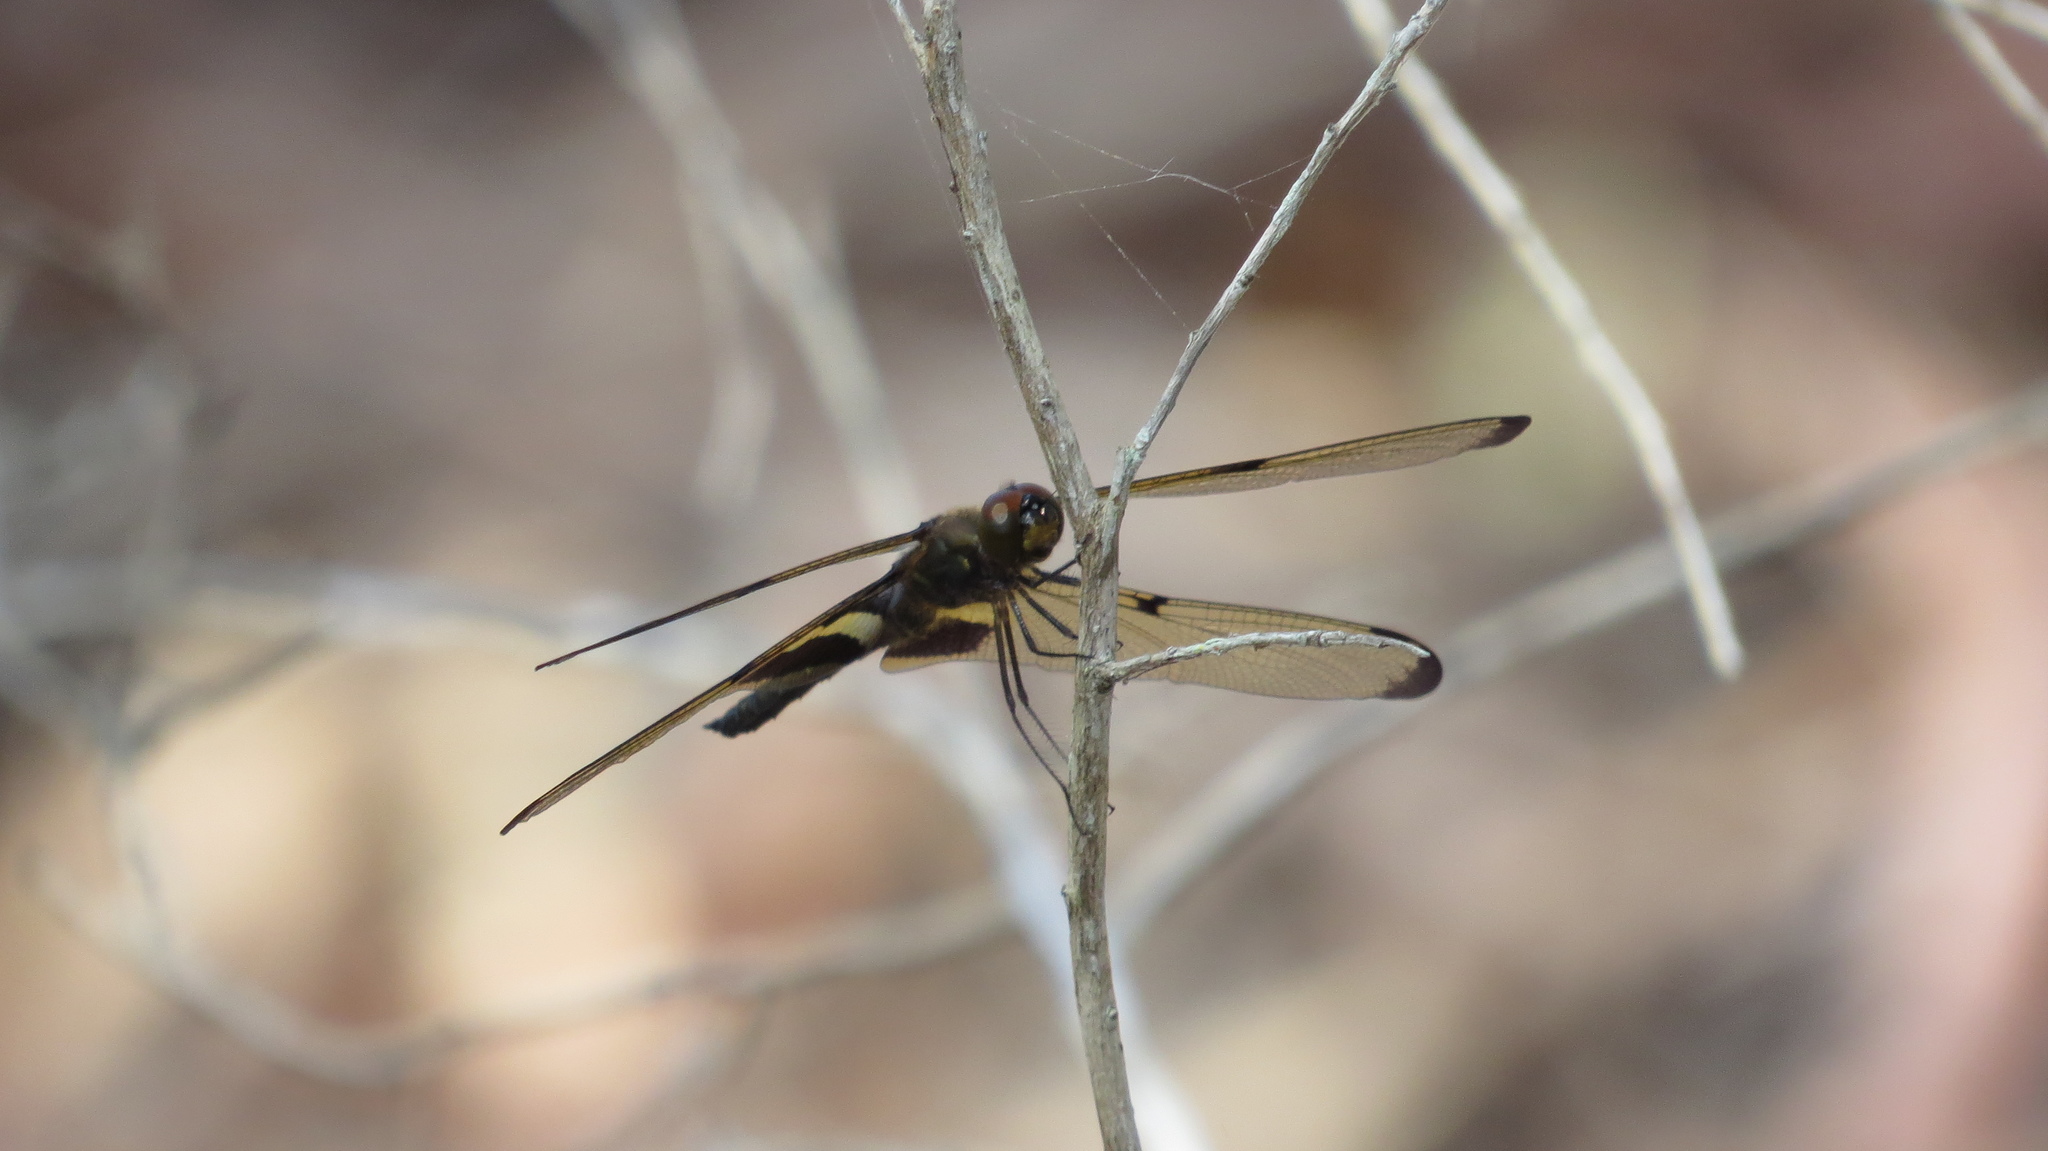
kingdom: Animalia
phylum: Arthropoda
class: Insecta
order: Odonata
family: Libellulidae
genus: Rhyothemis
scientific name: Rhyothemis phyllis
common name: Yellow-barred flutterer
